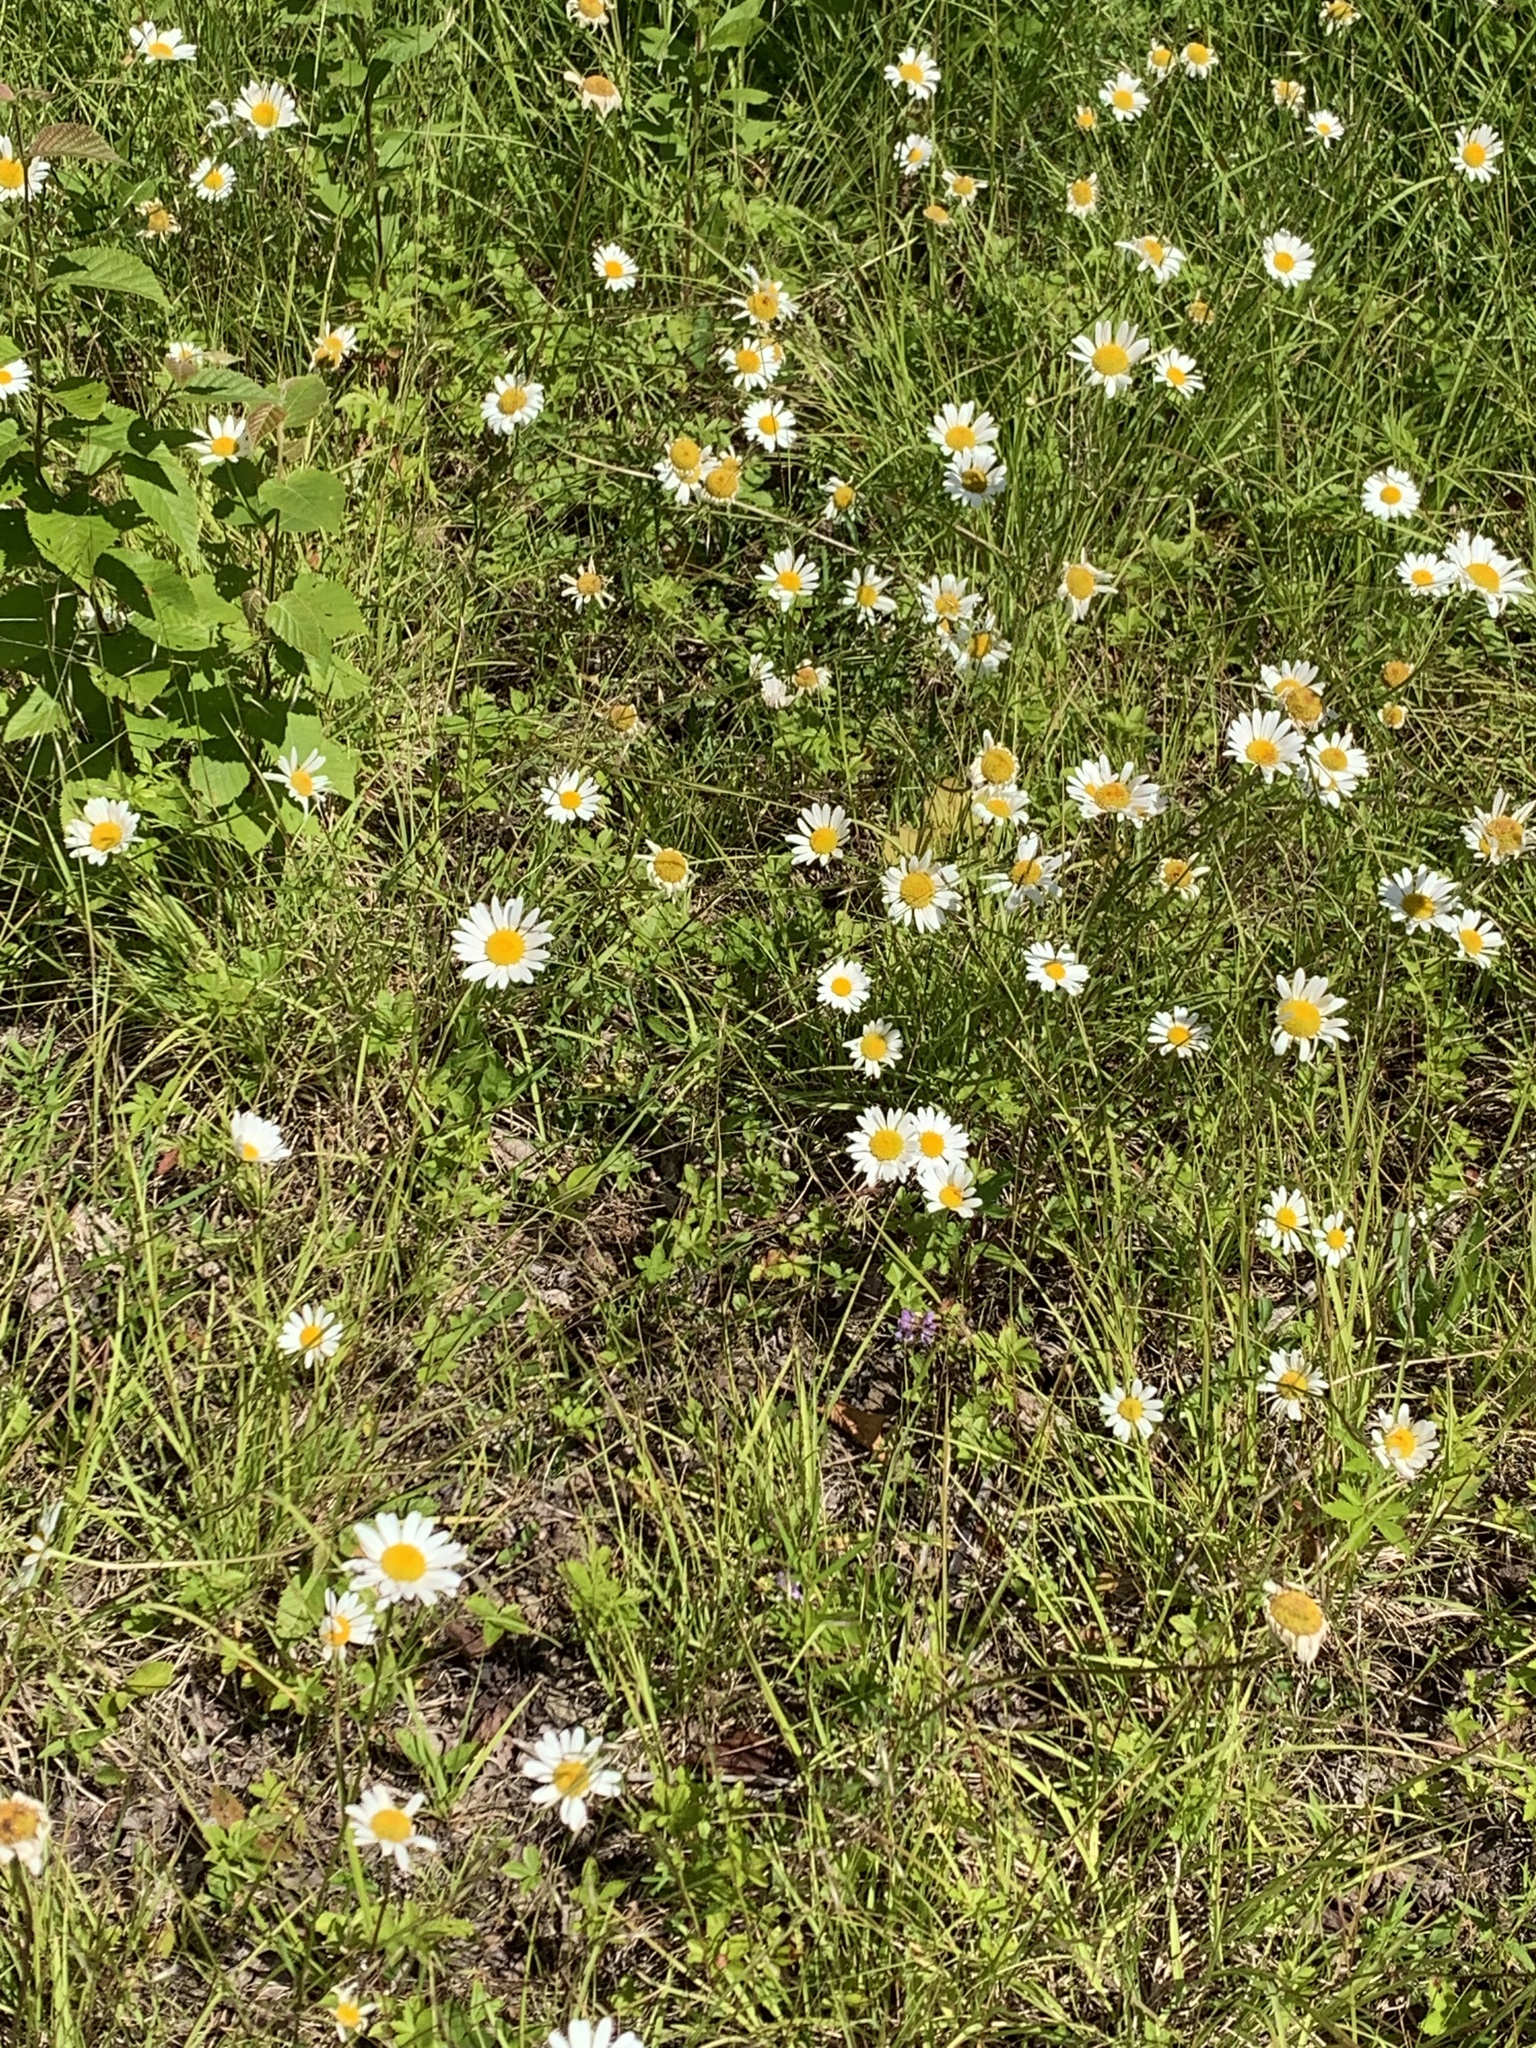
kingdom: Plantae
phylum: Tracheophyta
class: Magnoliopsida
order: Asterales
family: Asteraceae
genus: Leucanthemum
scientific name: Leucanthemum vulgare
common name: Oxeye daisy
